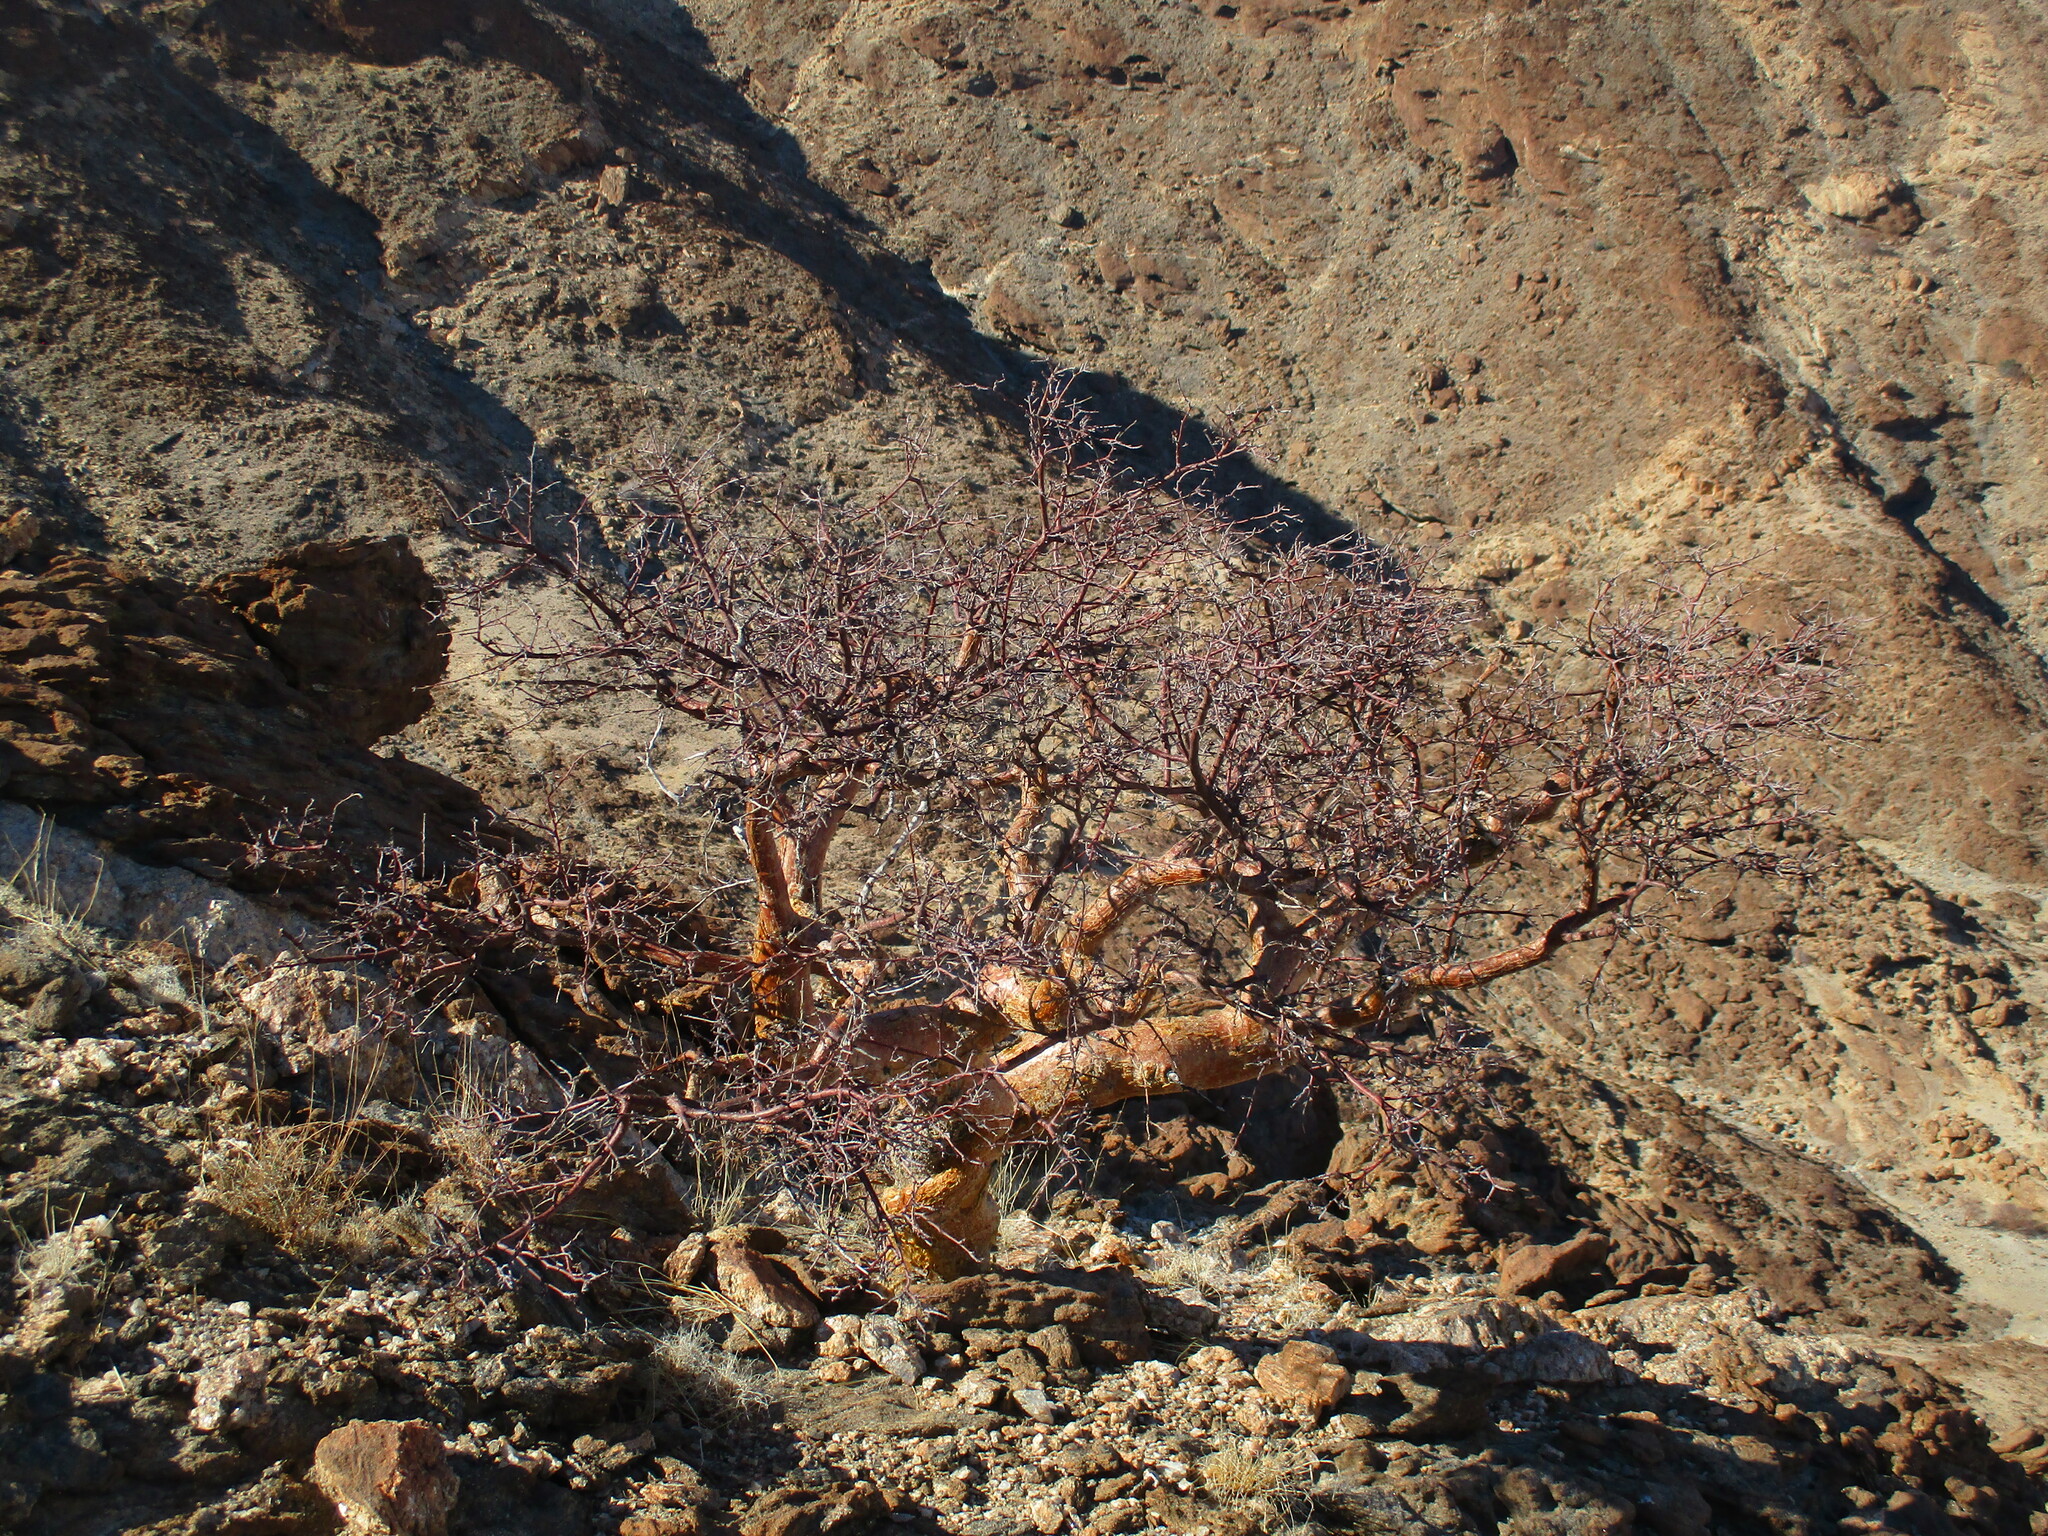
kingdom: Plantae
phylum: Tracheophyta
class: Magnoliopsida
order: Sapindales
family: Burseraceae
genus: Commiphora
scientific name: Commiphora glaucescens
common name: Blue-leaved corkwood
